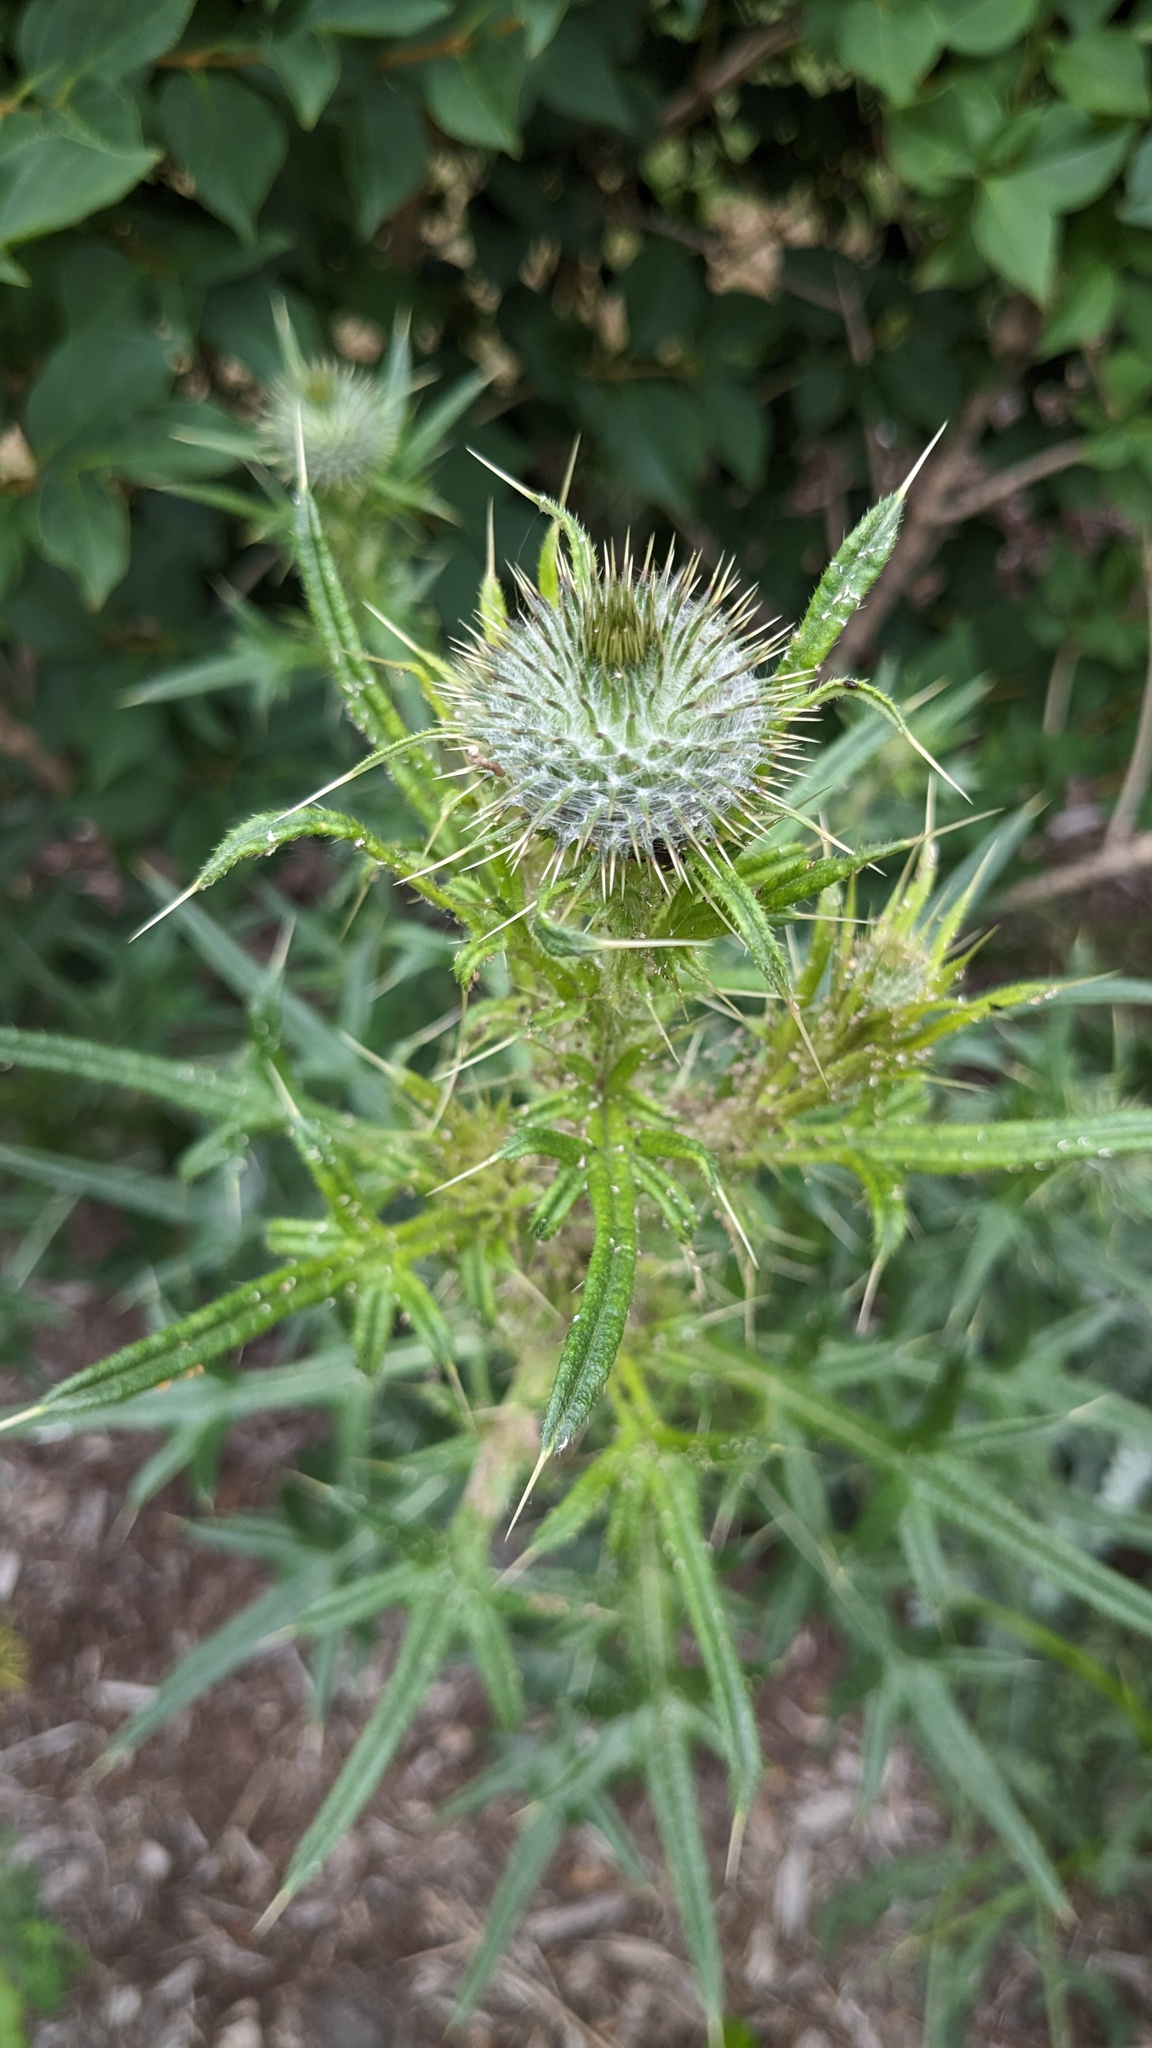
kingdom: Plantae
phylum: Tracheophyta
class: Magnoliopsida
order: Asterales
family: Asteraceae
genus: Cirsium
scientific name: Cirsium vulgare
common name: Bull thistle
